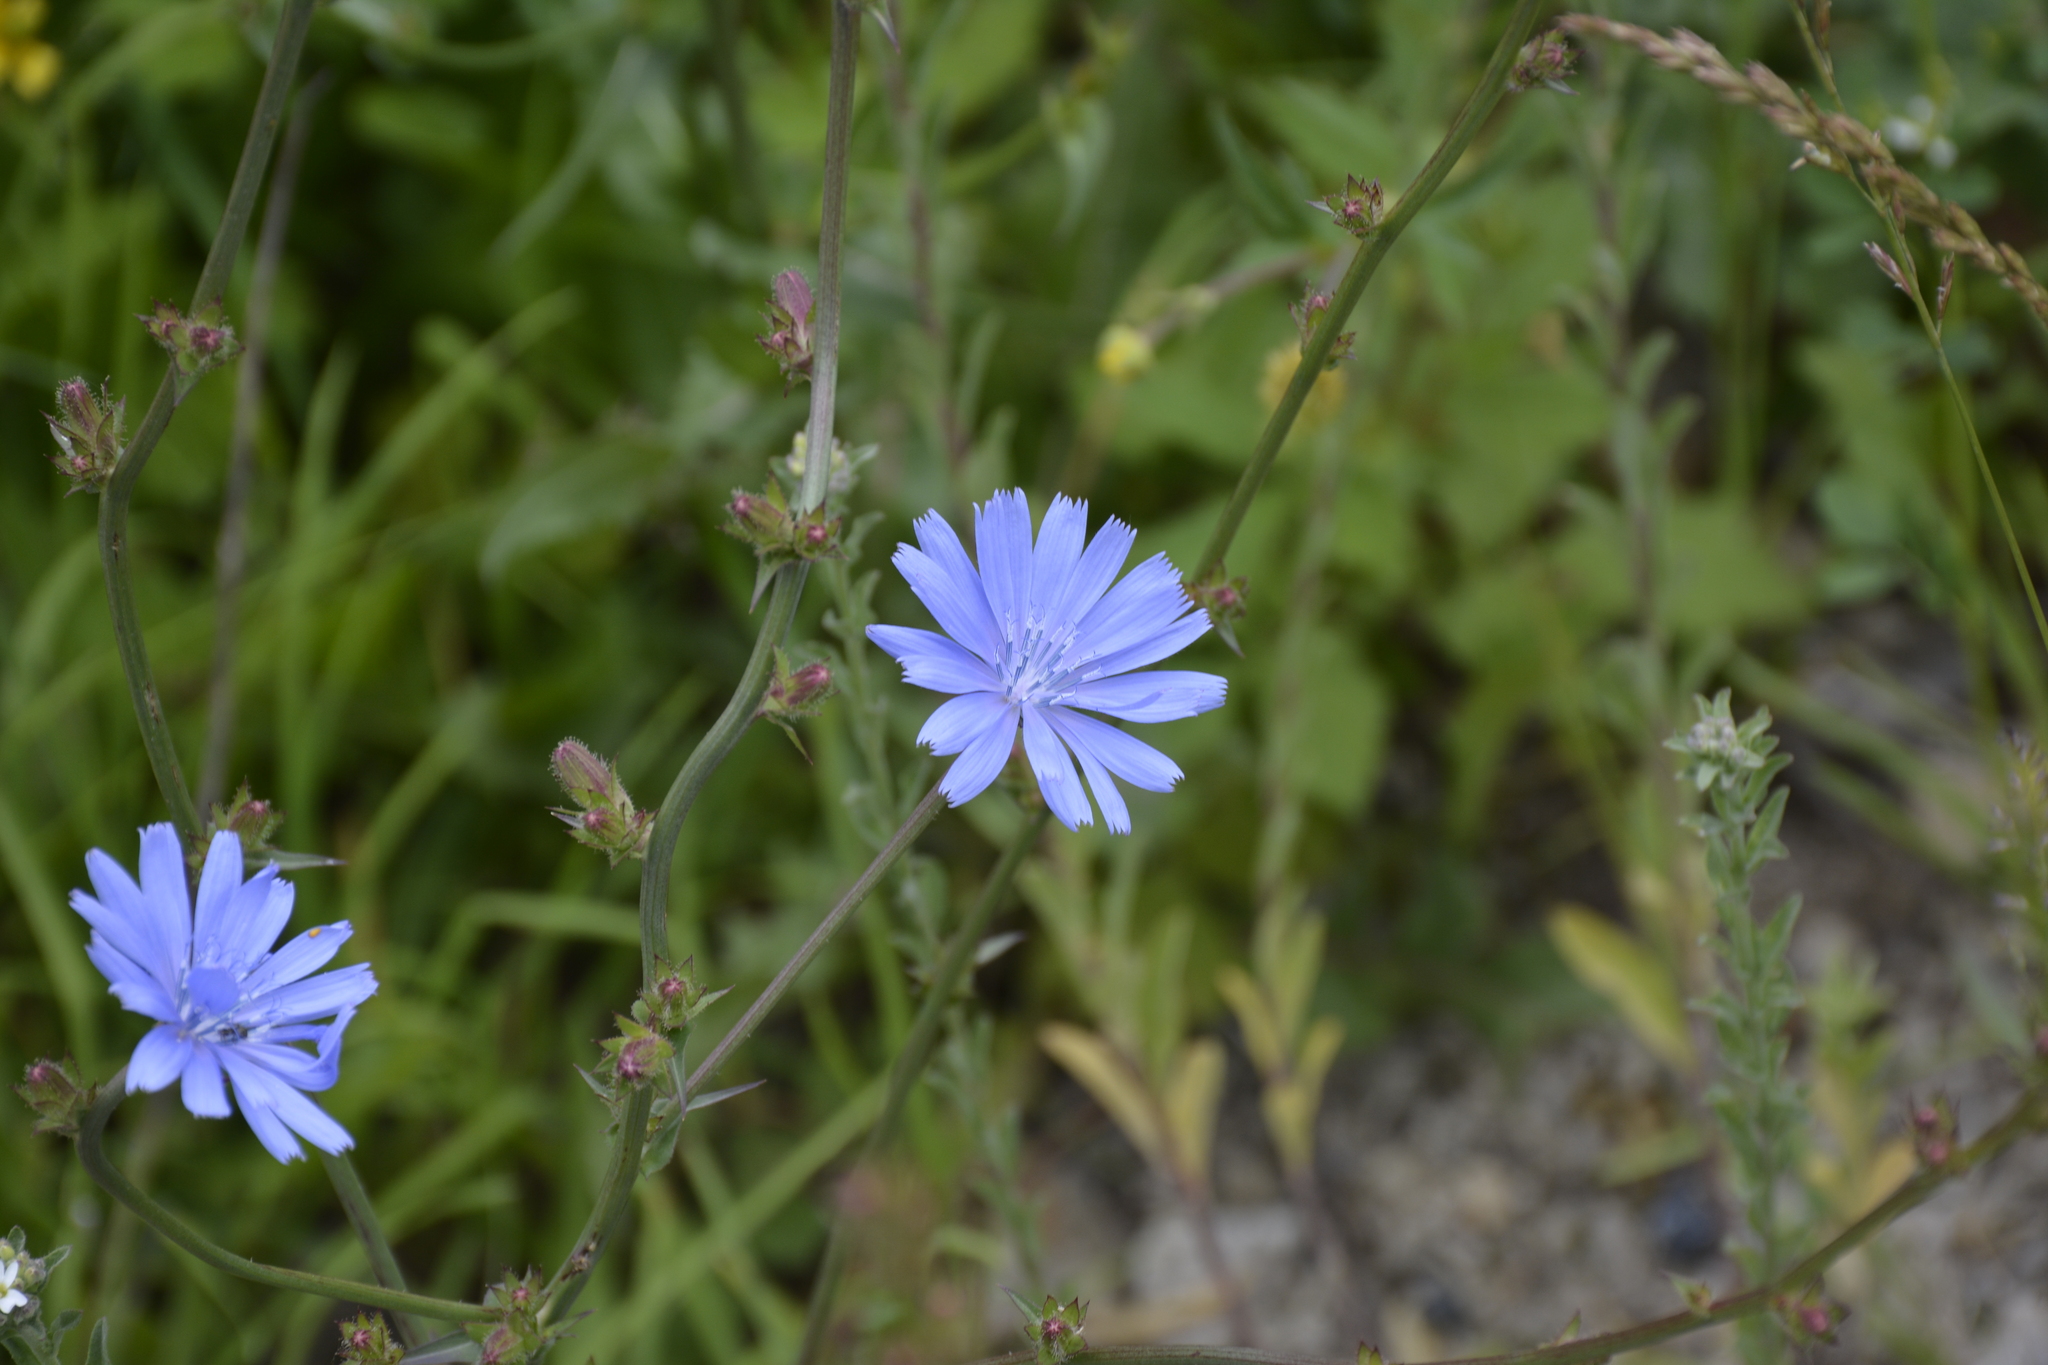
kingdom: Plantae
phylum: Tracheophyta
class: Magnoliopsida
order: Asterales
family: Asteraceae
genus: Cichorium
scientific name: Cichorium intybus
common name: Chicory
